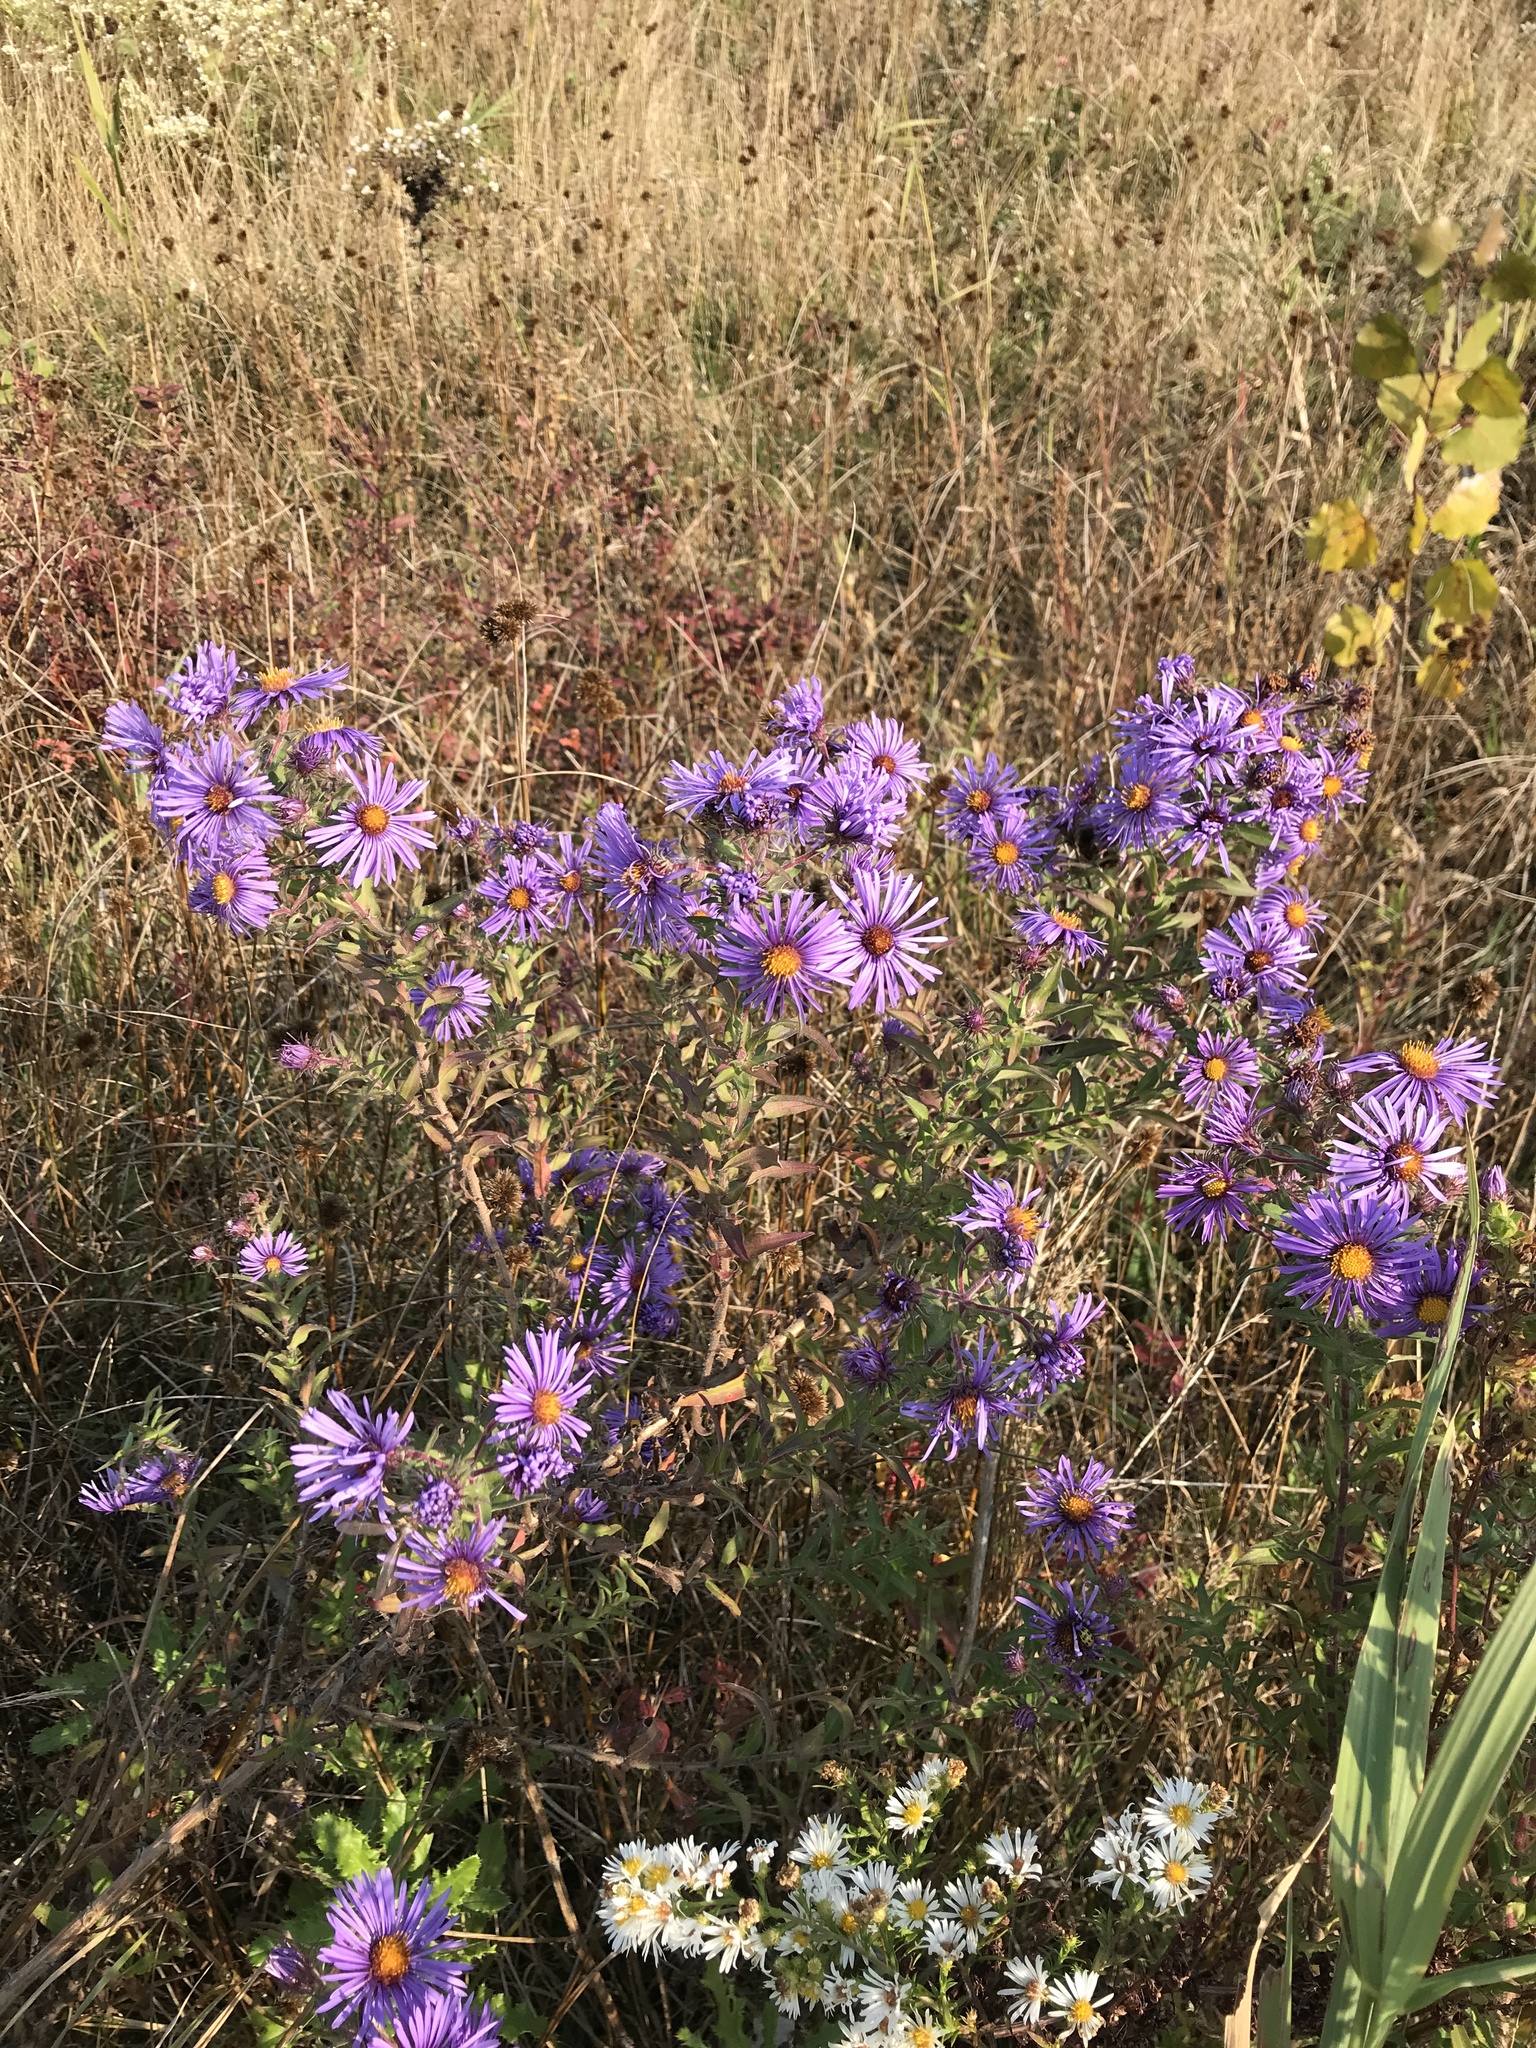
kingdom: Plantae
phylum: Tracheophyta
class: Magnoliopsida
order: Asterales
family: Asteraceae
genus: Symphyotrichum
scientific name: Symphyotrichum novae-angliae
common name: Michaelmas daisy
